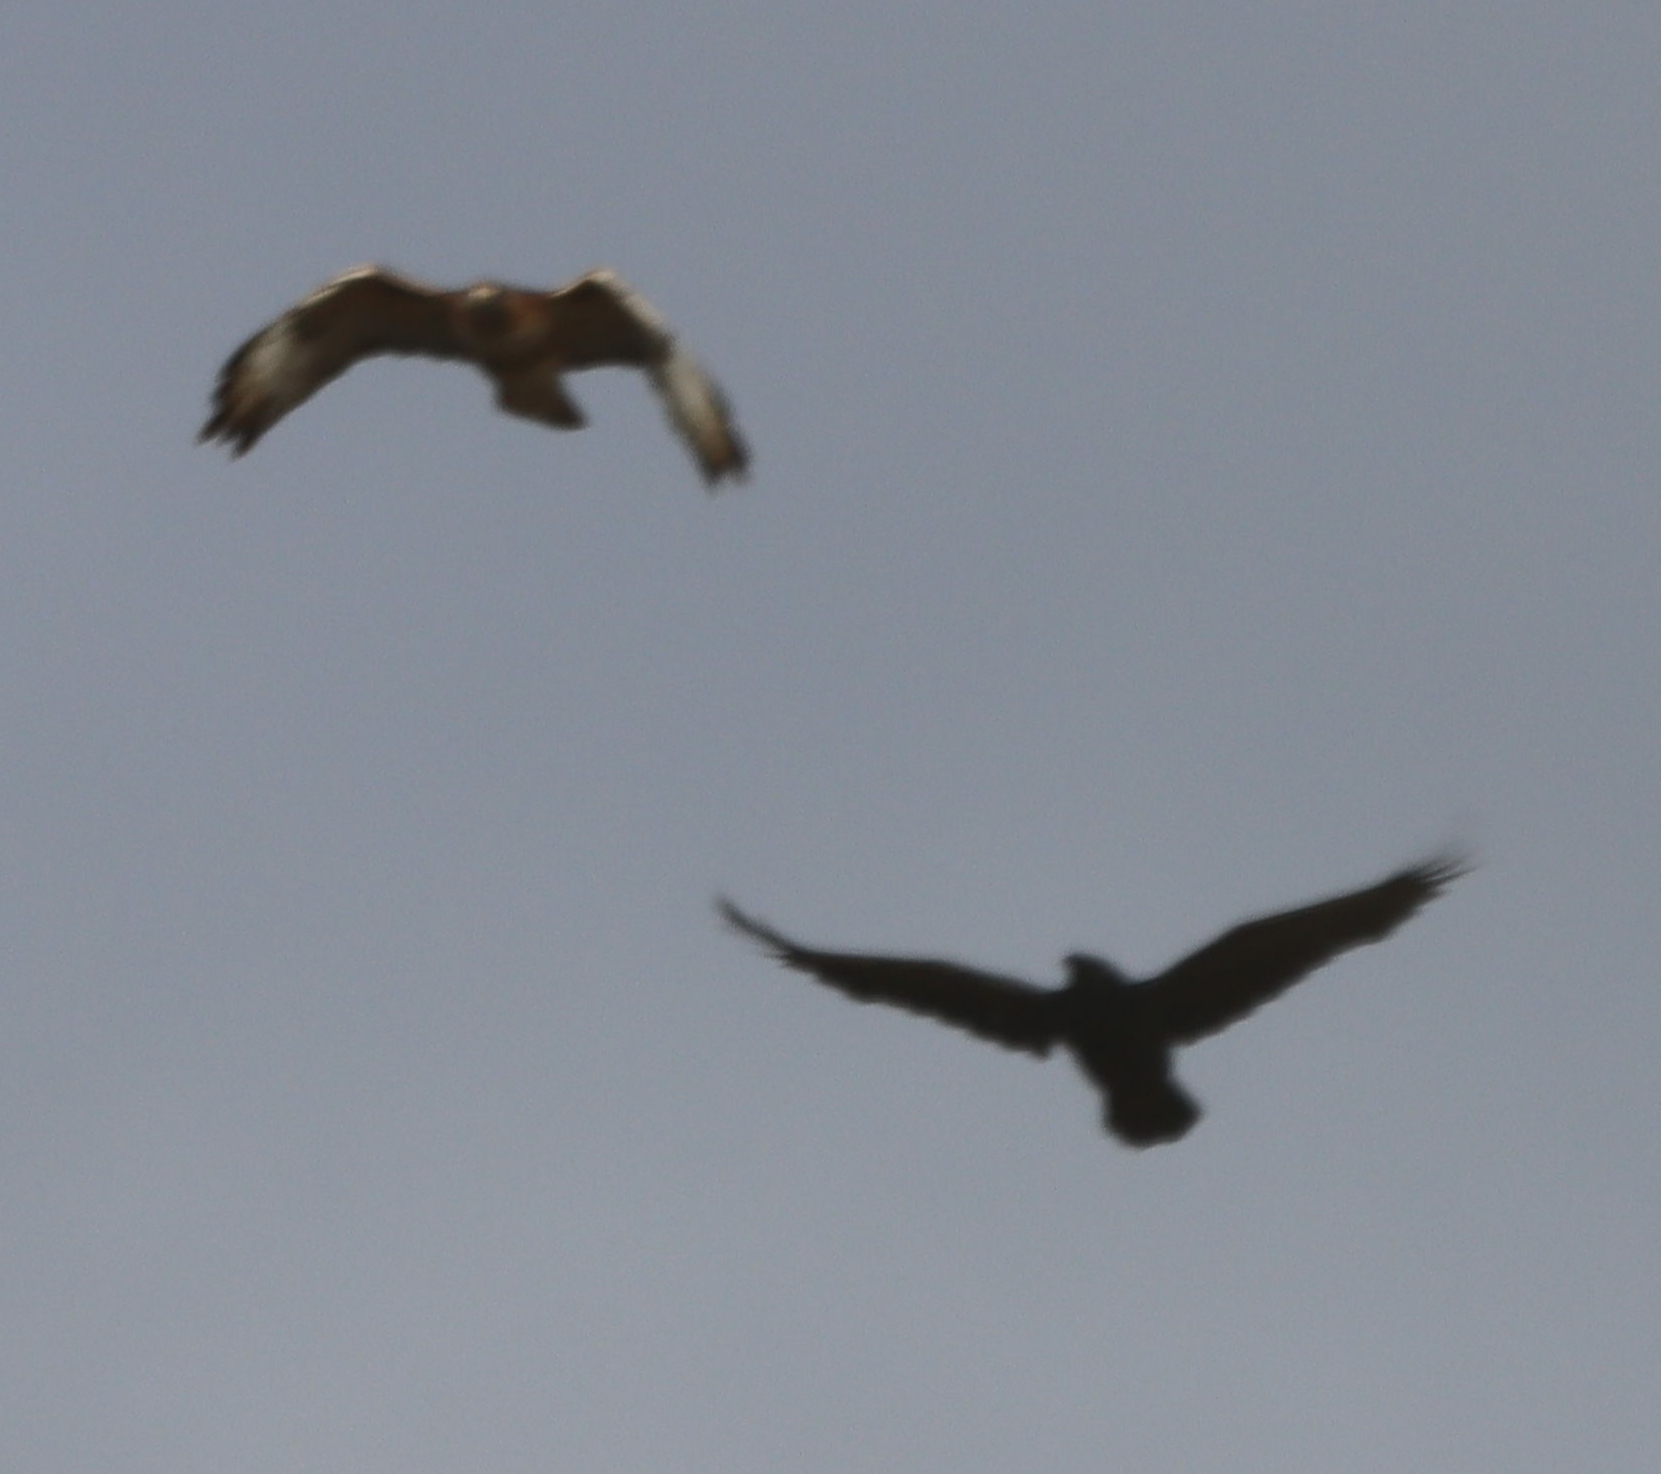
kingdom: Animalia
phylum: Chordata
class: Aves
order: Accipitriformes
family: Accipitridae
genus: Buteo
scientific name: Buteo jamaicensis
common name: Red-tailed hawk
